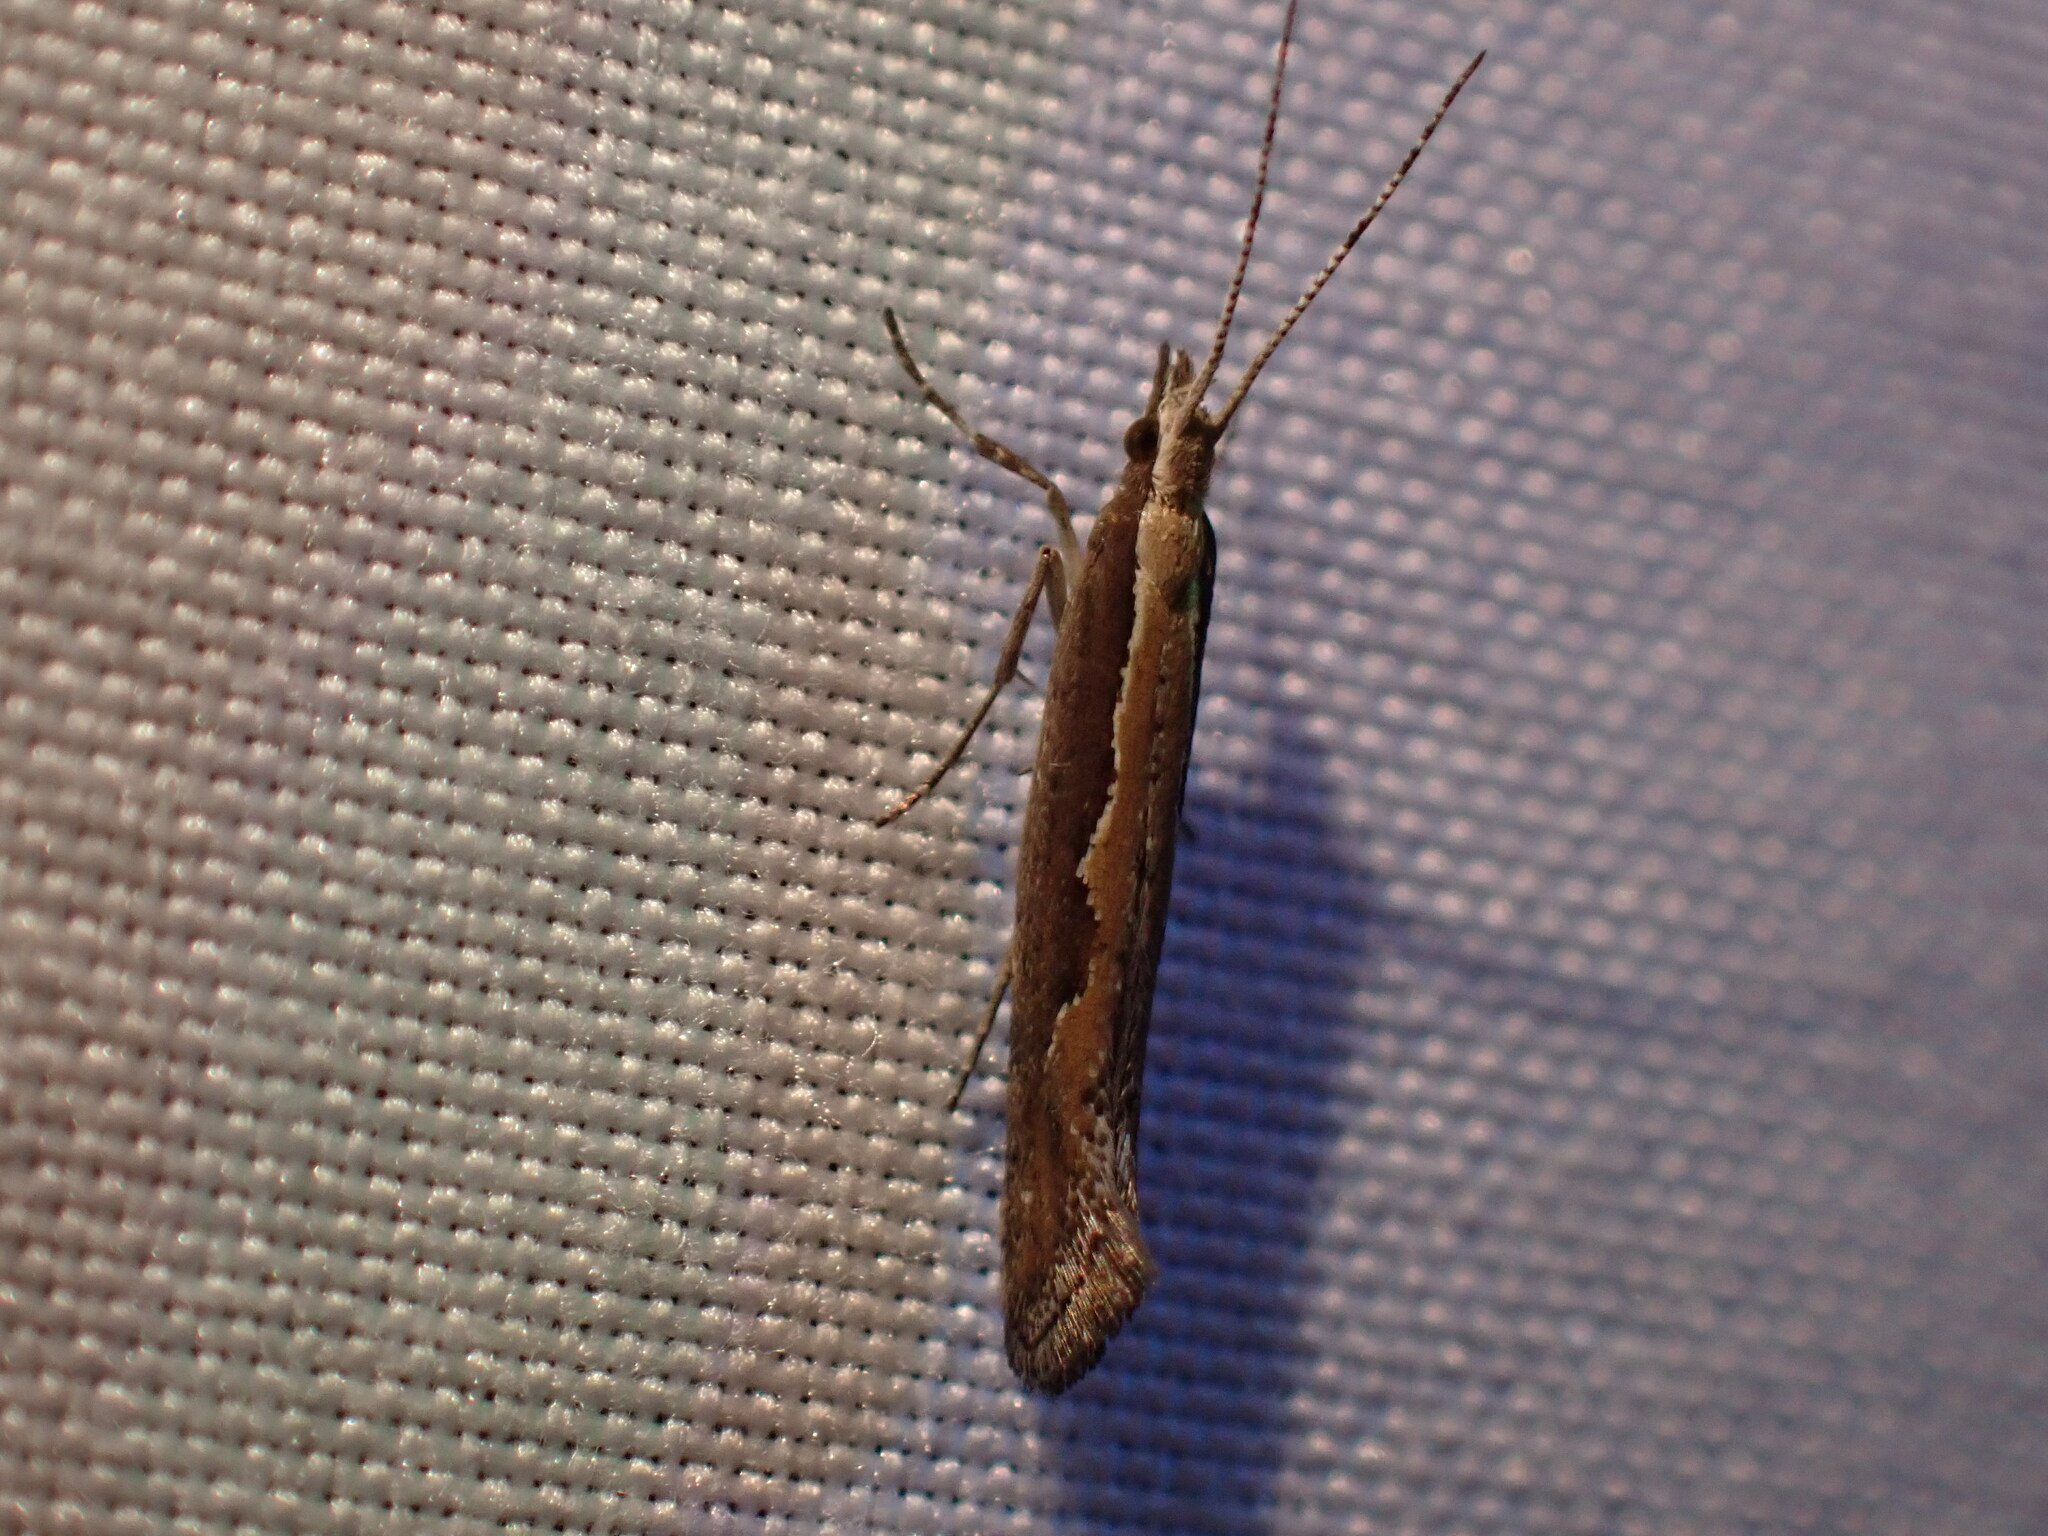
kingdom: Animalia
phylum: Arthropoda
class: Insecta
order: Lepidoptera
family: Plutellidae
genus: Plutella
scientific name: Plutella xylostella
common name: Diamond-back moth
